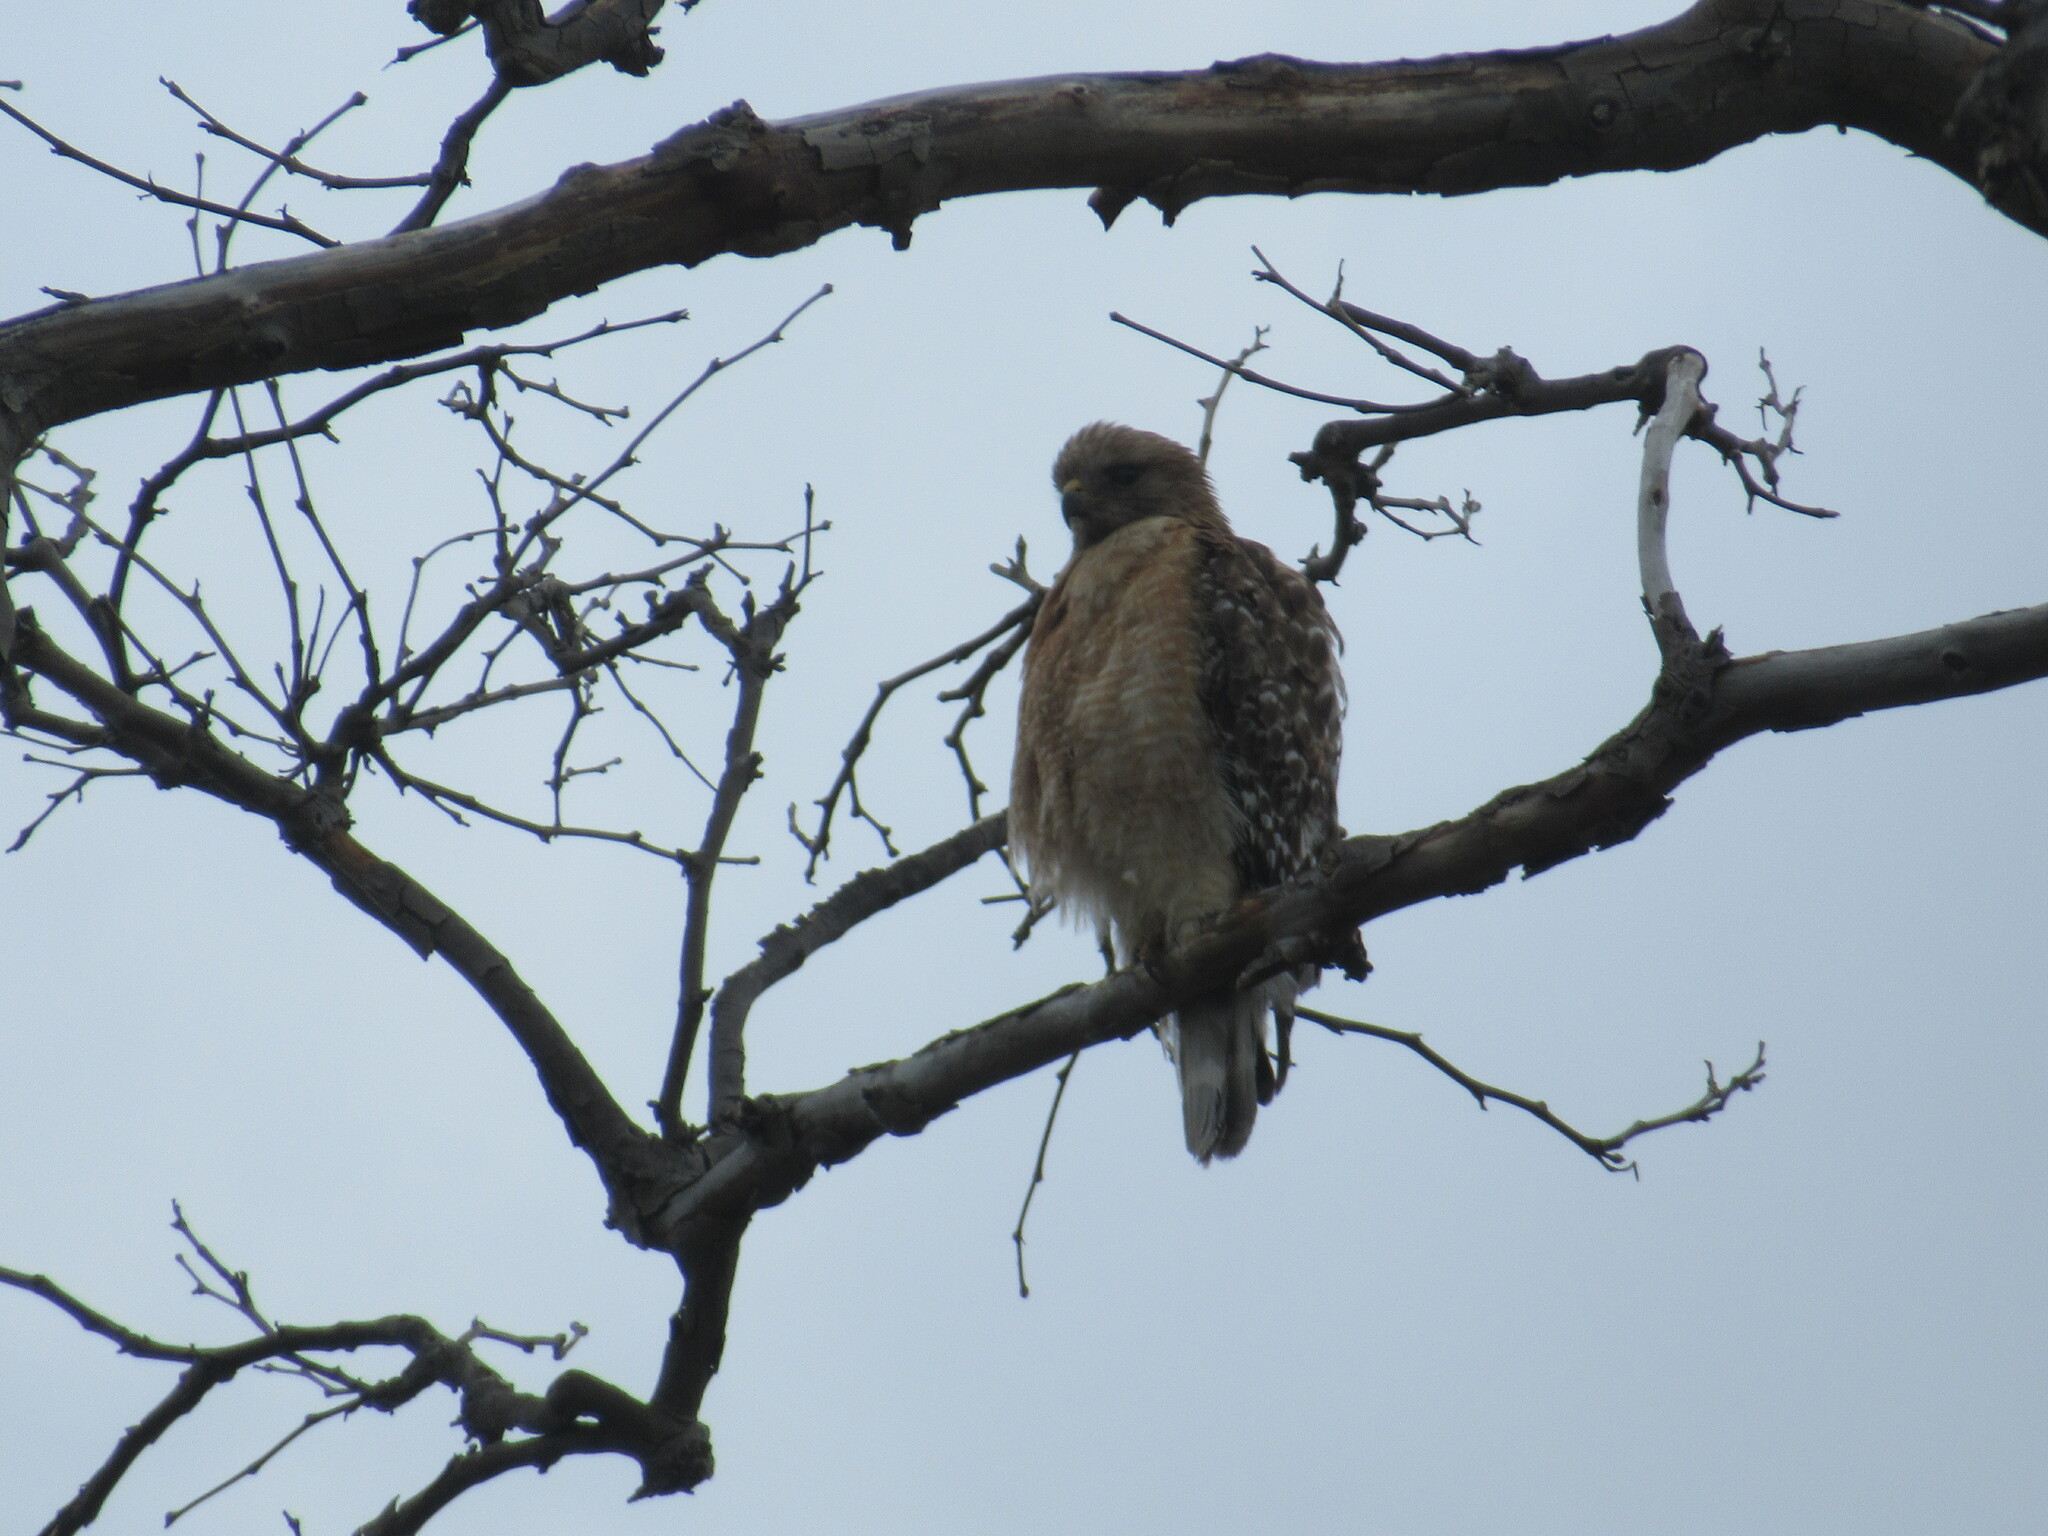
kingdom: Animalia
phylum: Chordata
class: Aves
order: Accipitriformes
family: Accipitridae
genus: Buteo
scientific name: Buteo lineatus
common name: Red-shouldered hawk
